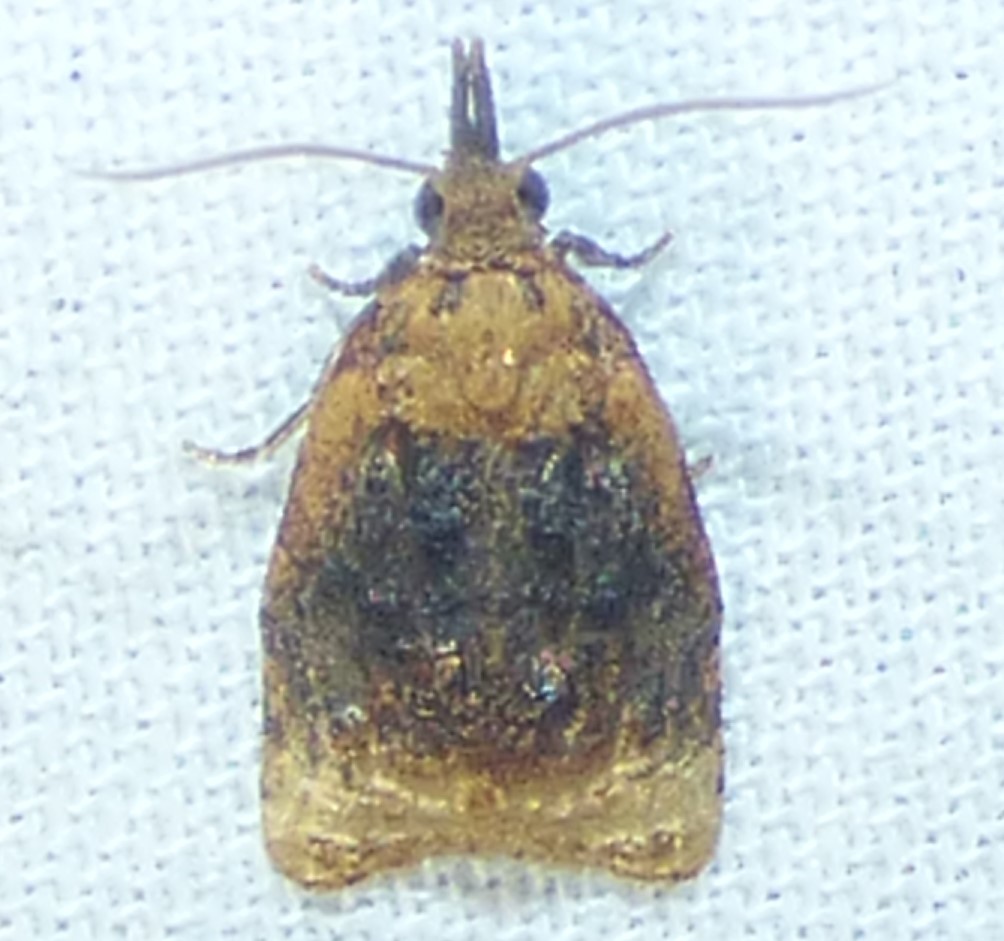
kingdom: Animalia
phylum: Arthropoda
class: Insecta
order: Lepidoptera
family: Tortricidae
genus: Platynota
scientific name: Platynota flavedana
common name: Black-shaded platynota moth
